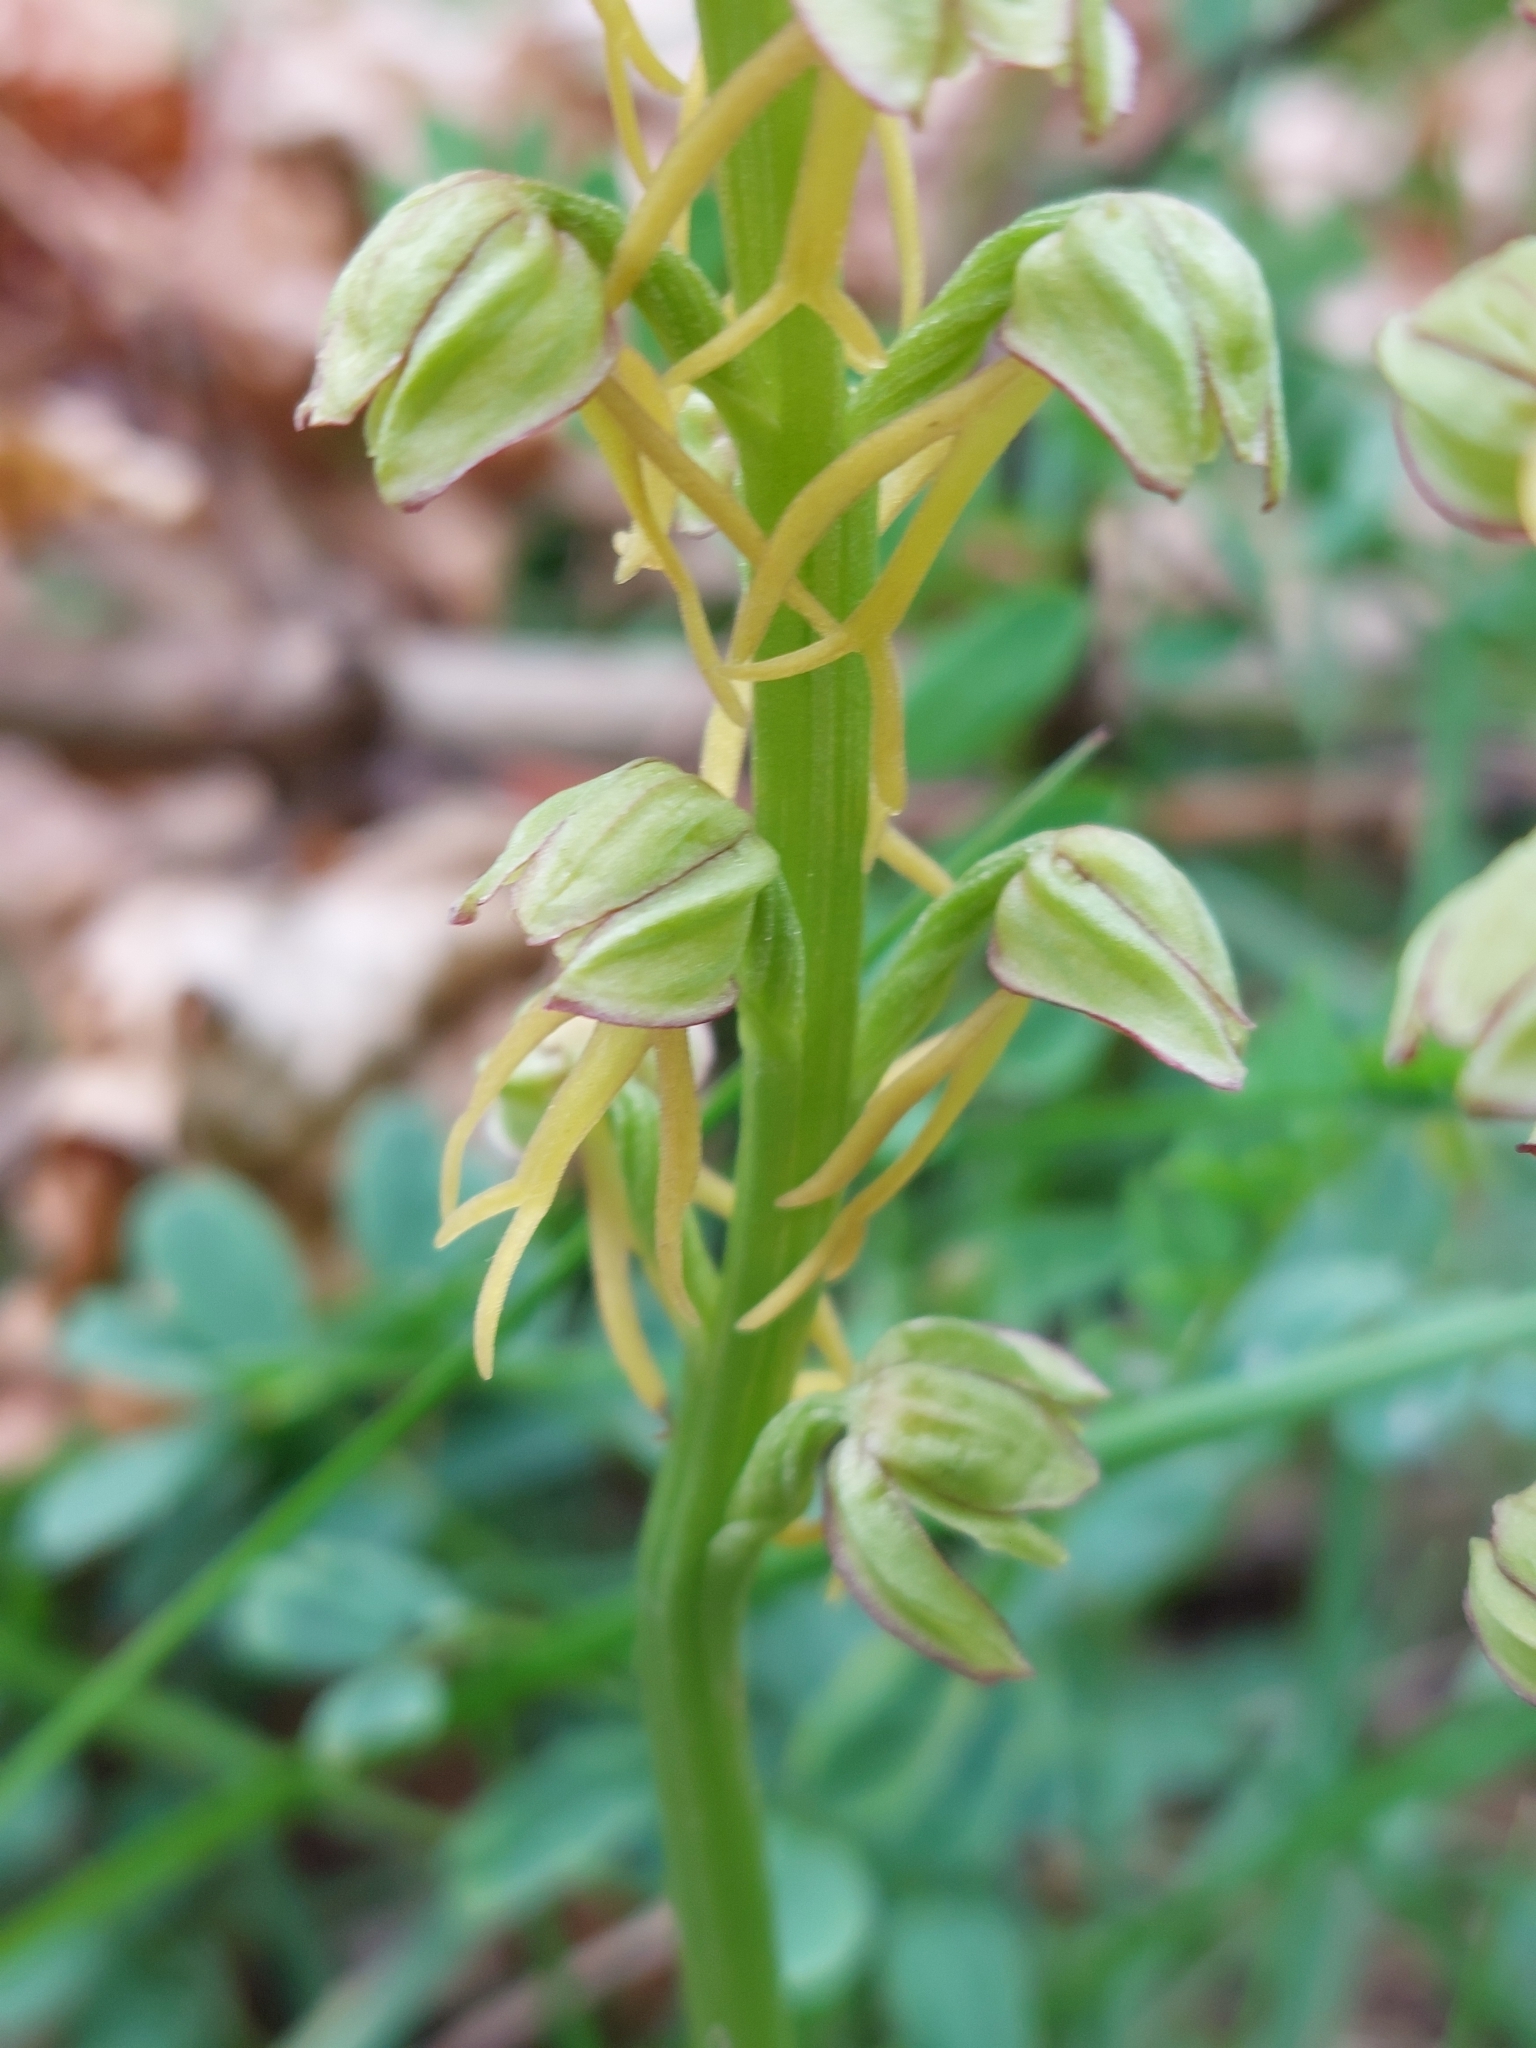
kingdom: Plantae
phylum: Tracheophyta
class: Liliopsida
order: Asparagales
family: Orchidaceae
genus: Orchis
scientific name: Orchis anthropophora
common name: Man orchid
